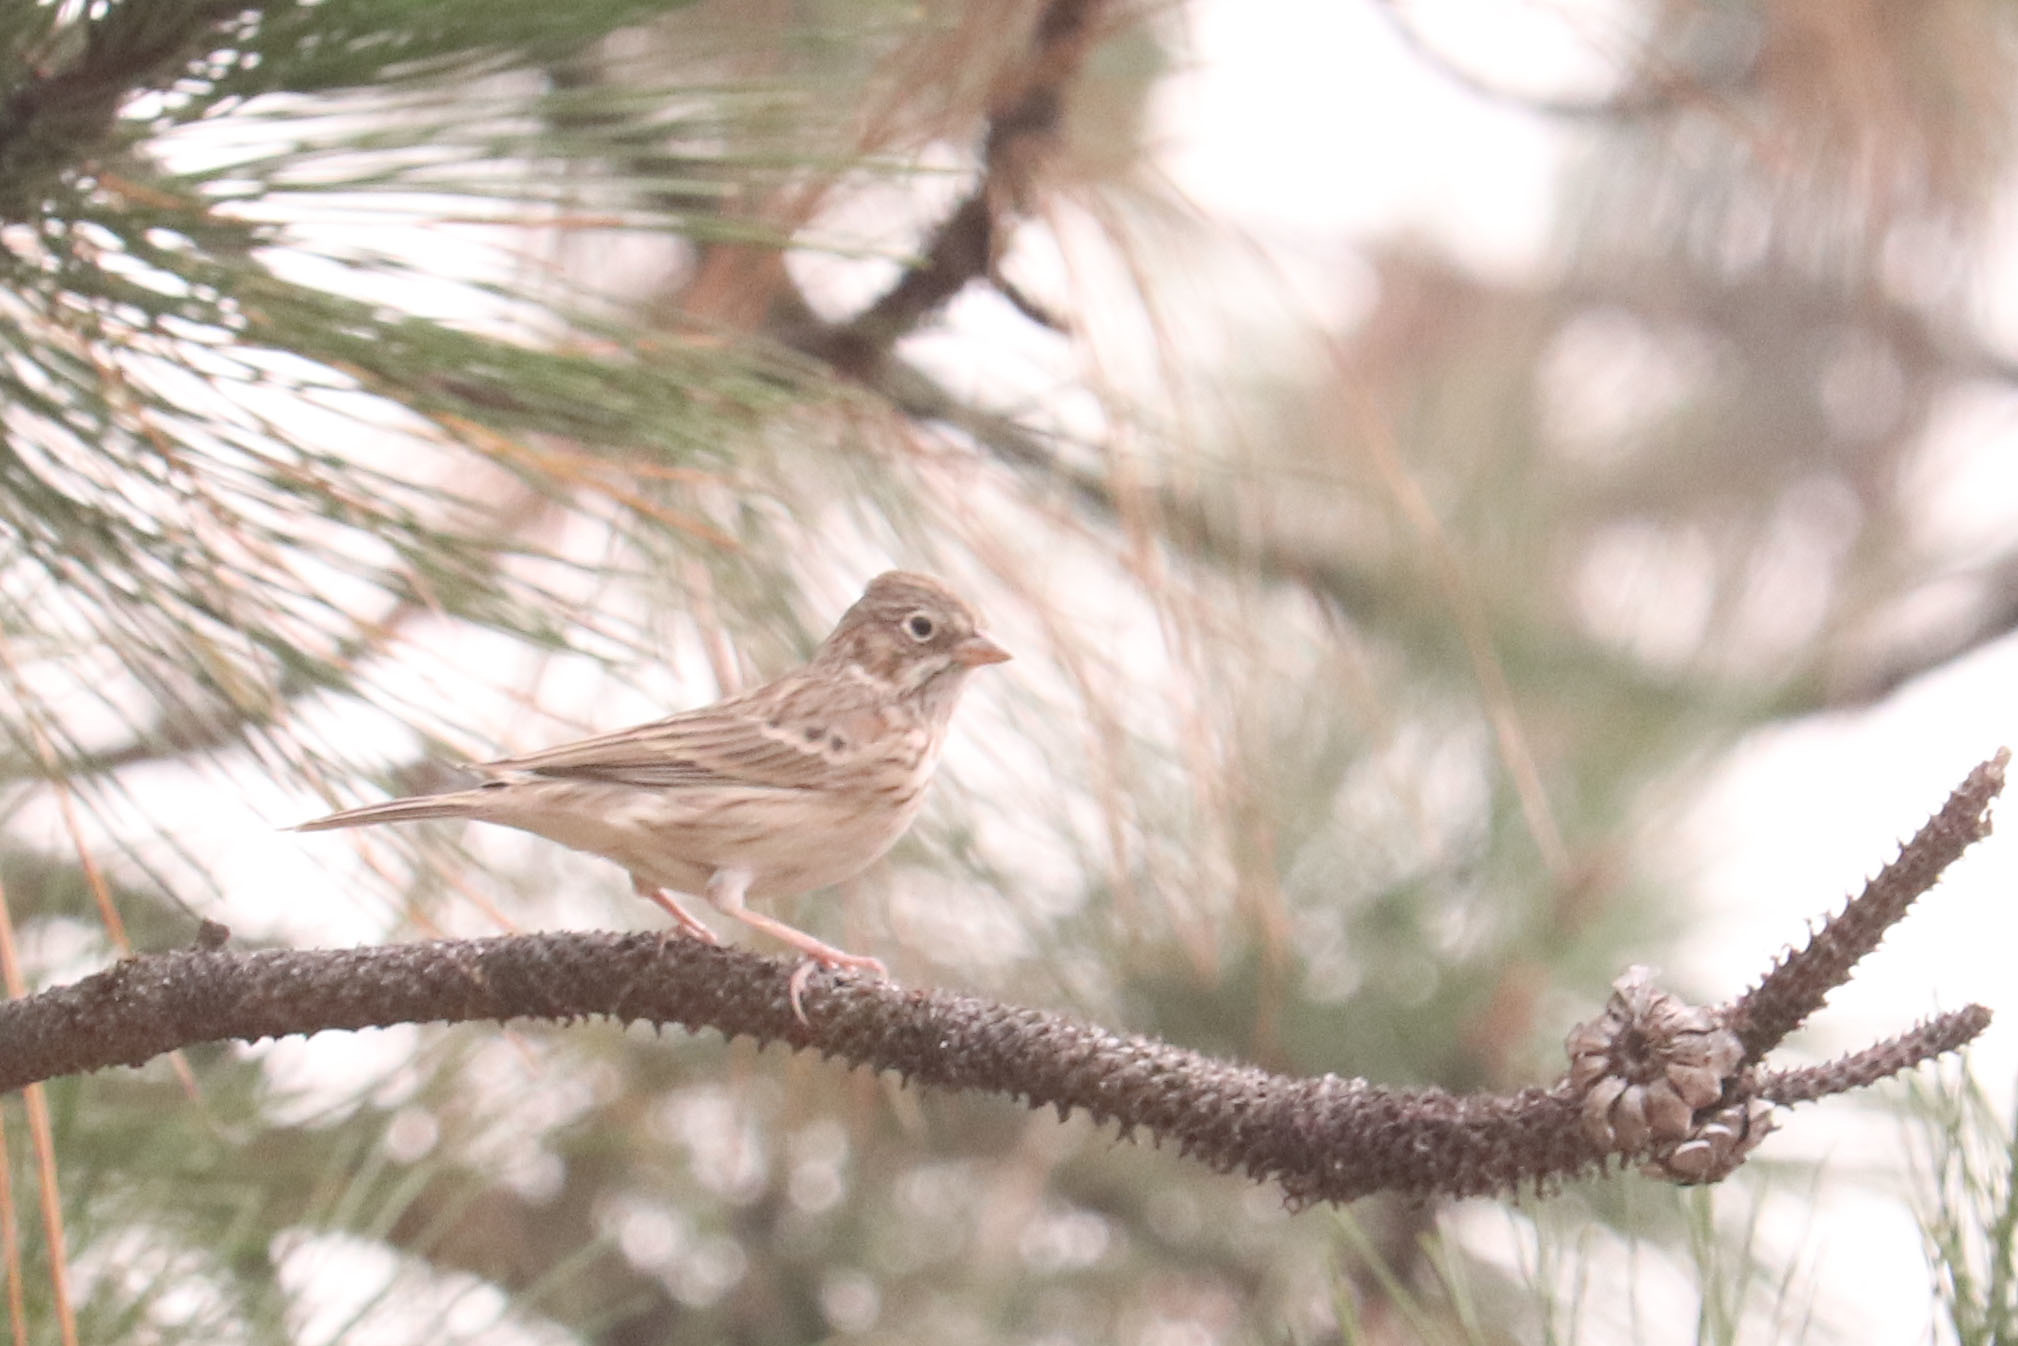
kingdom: Animalia
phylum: Chordata
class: Aves
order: Passeriformes
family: Passerellidae
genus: Pooecetes
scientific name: Pooecetes gramineus
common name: Vesper sparrow
